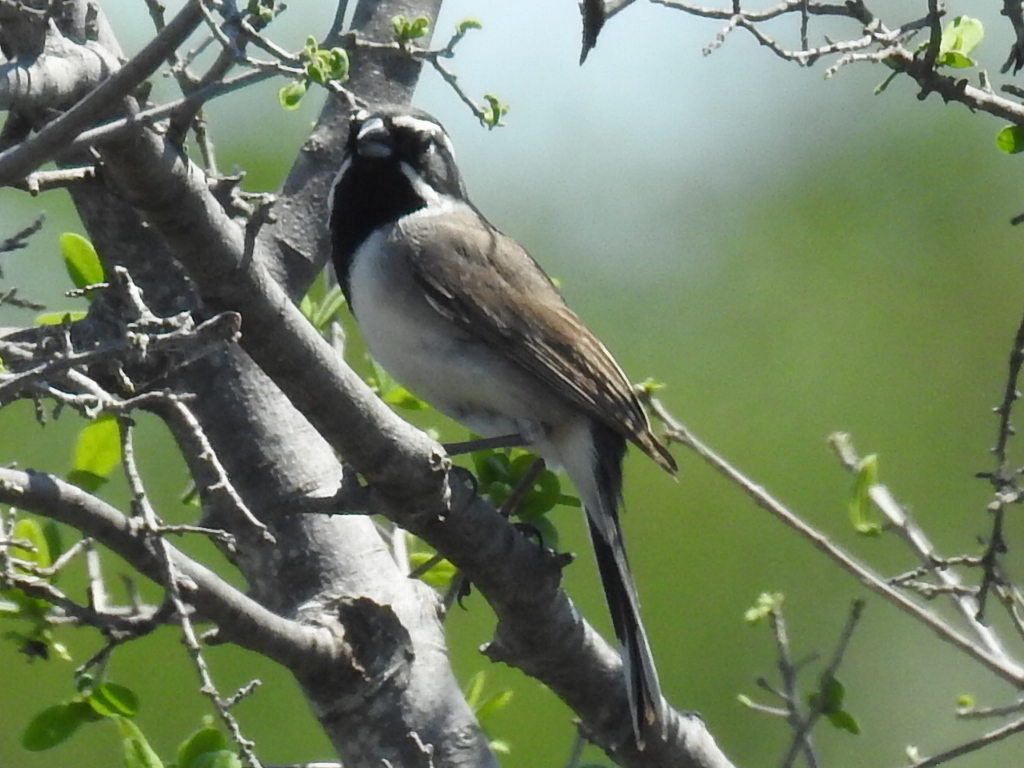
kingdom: Animalia
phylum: Chordata
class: Aves
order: Passeriformes
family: Passerellidae
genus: Amphispiza
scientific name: Amphispiza bilineata
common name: Black-throated sparrow
